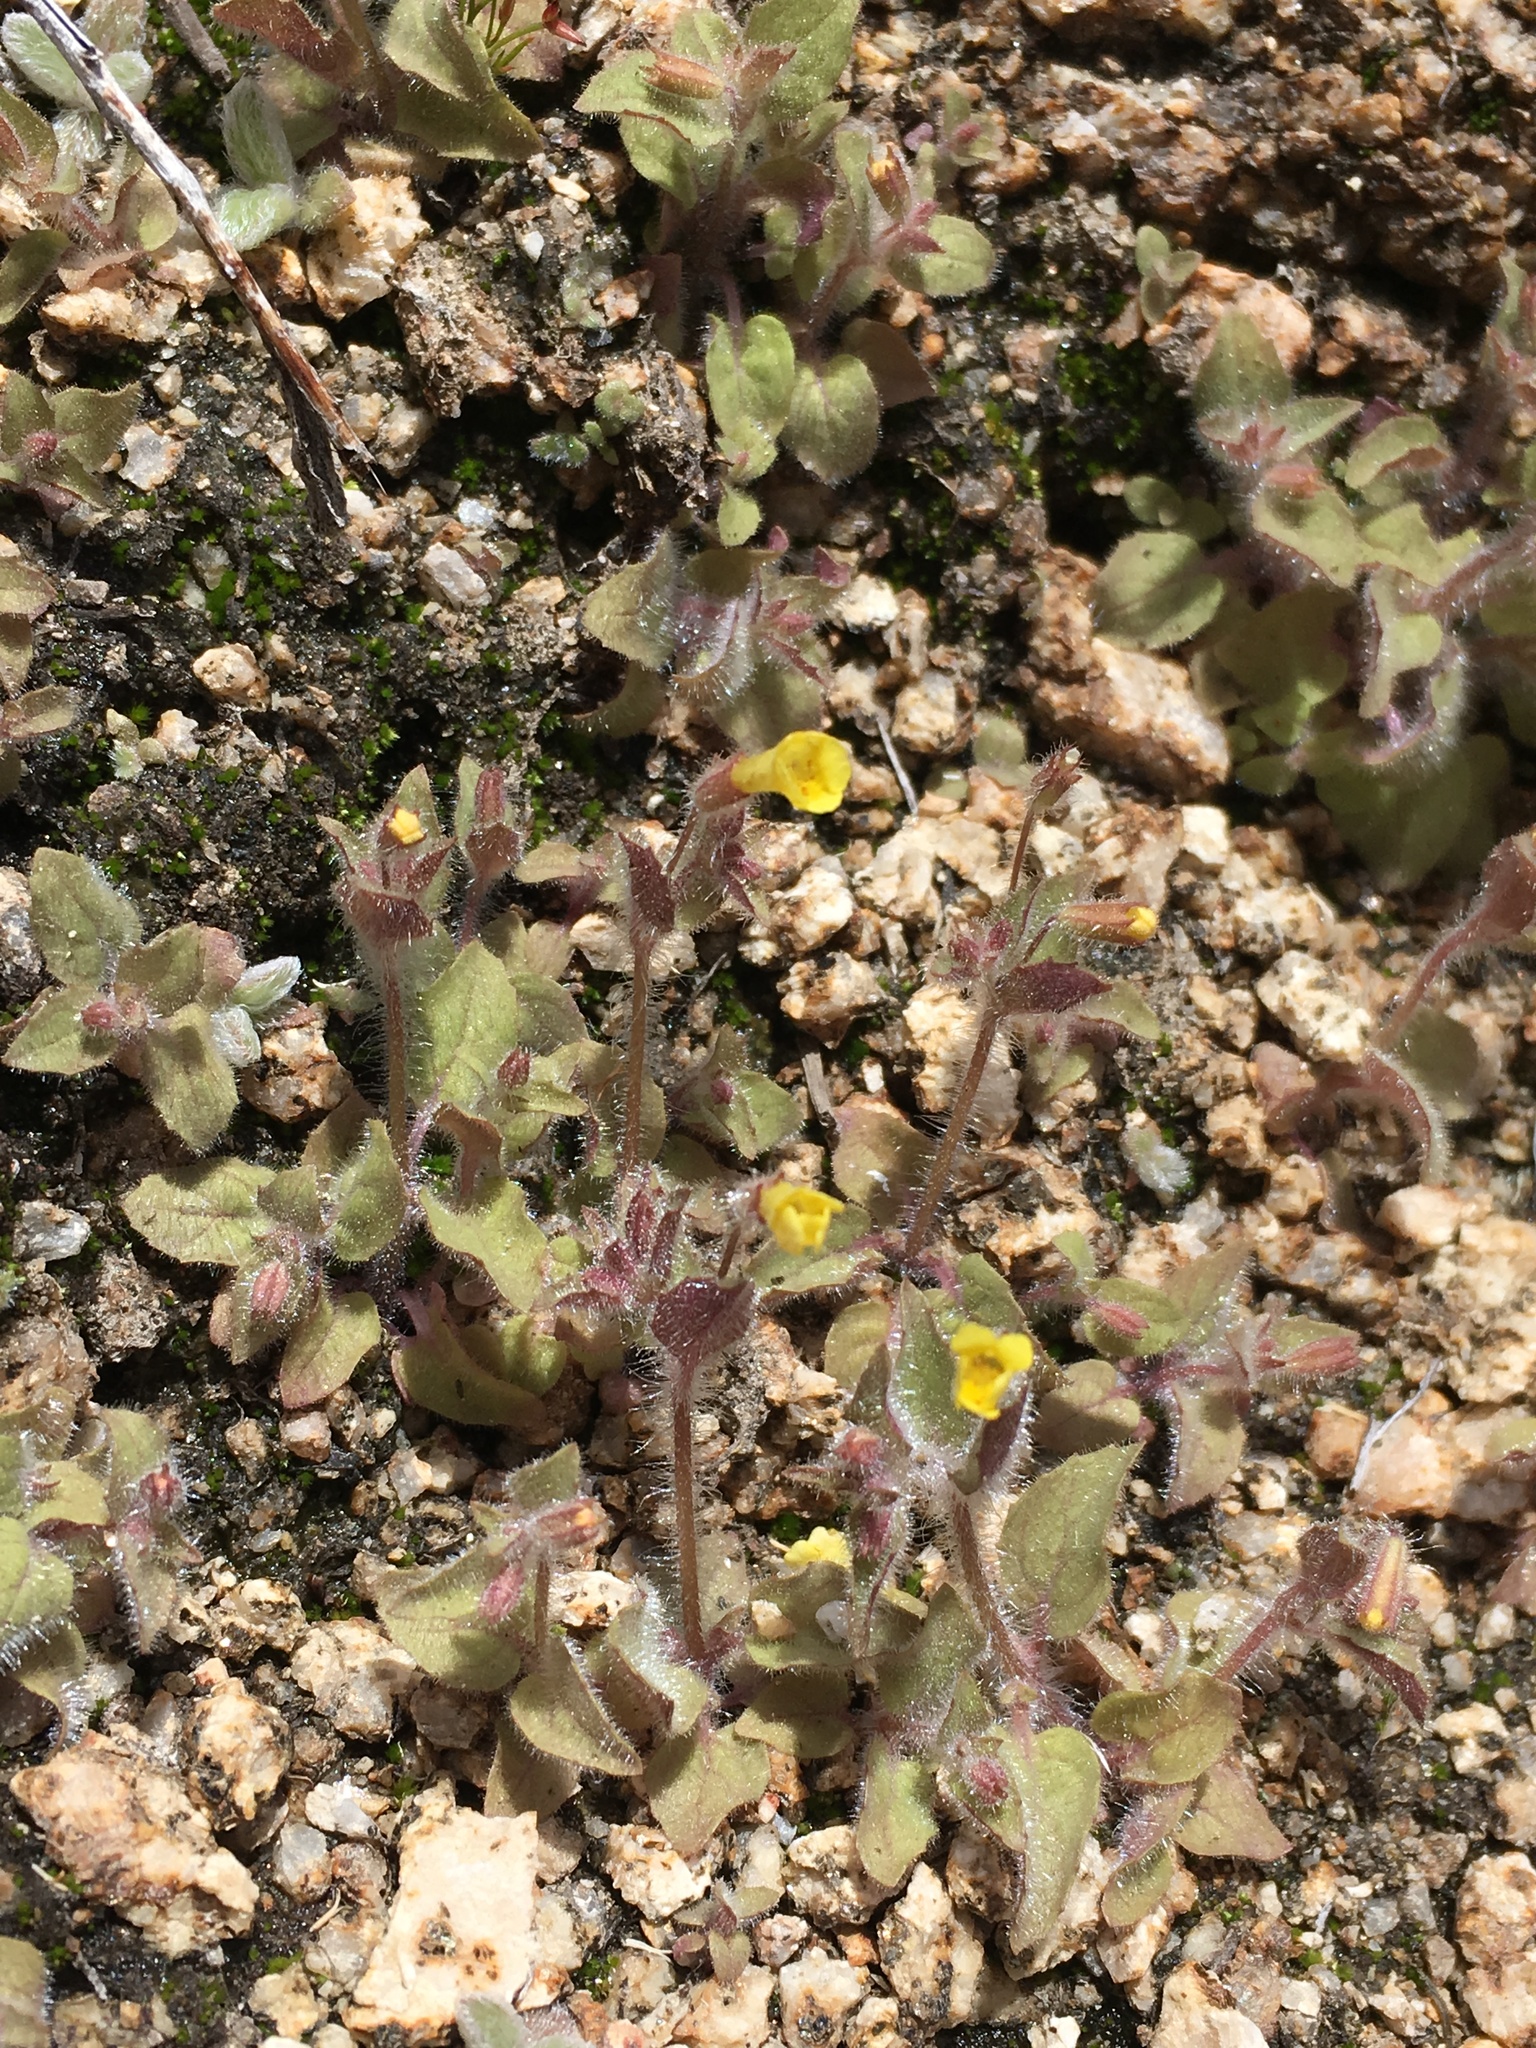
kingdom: Plantae
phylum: Tracheophyta
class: Magnoliopsida
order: Lamiales
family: Phrymaceae
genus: Erythranthe
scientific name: Erythranthe floribunda
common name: Floriferous monkeyflower
